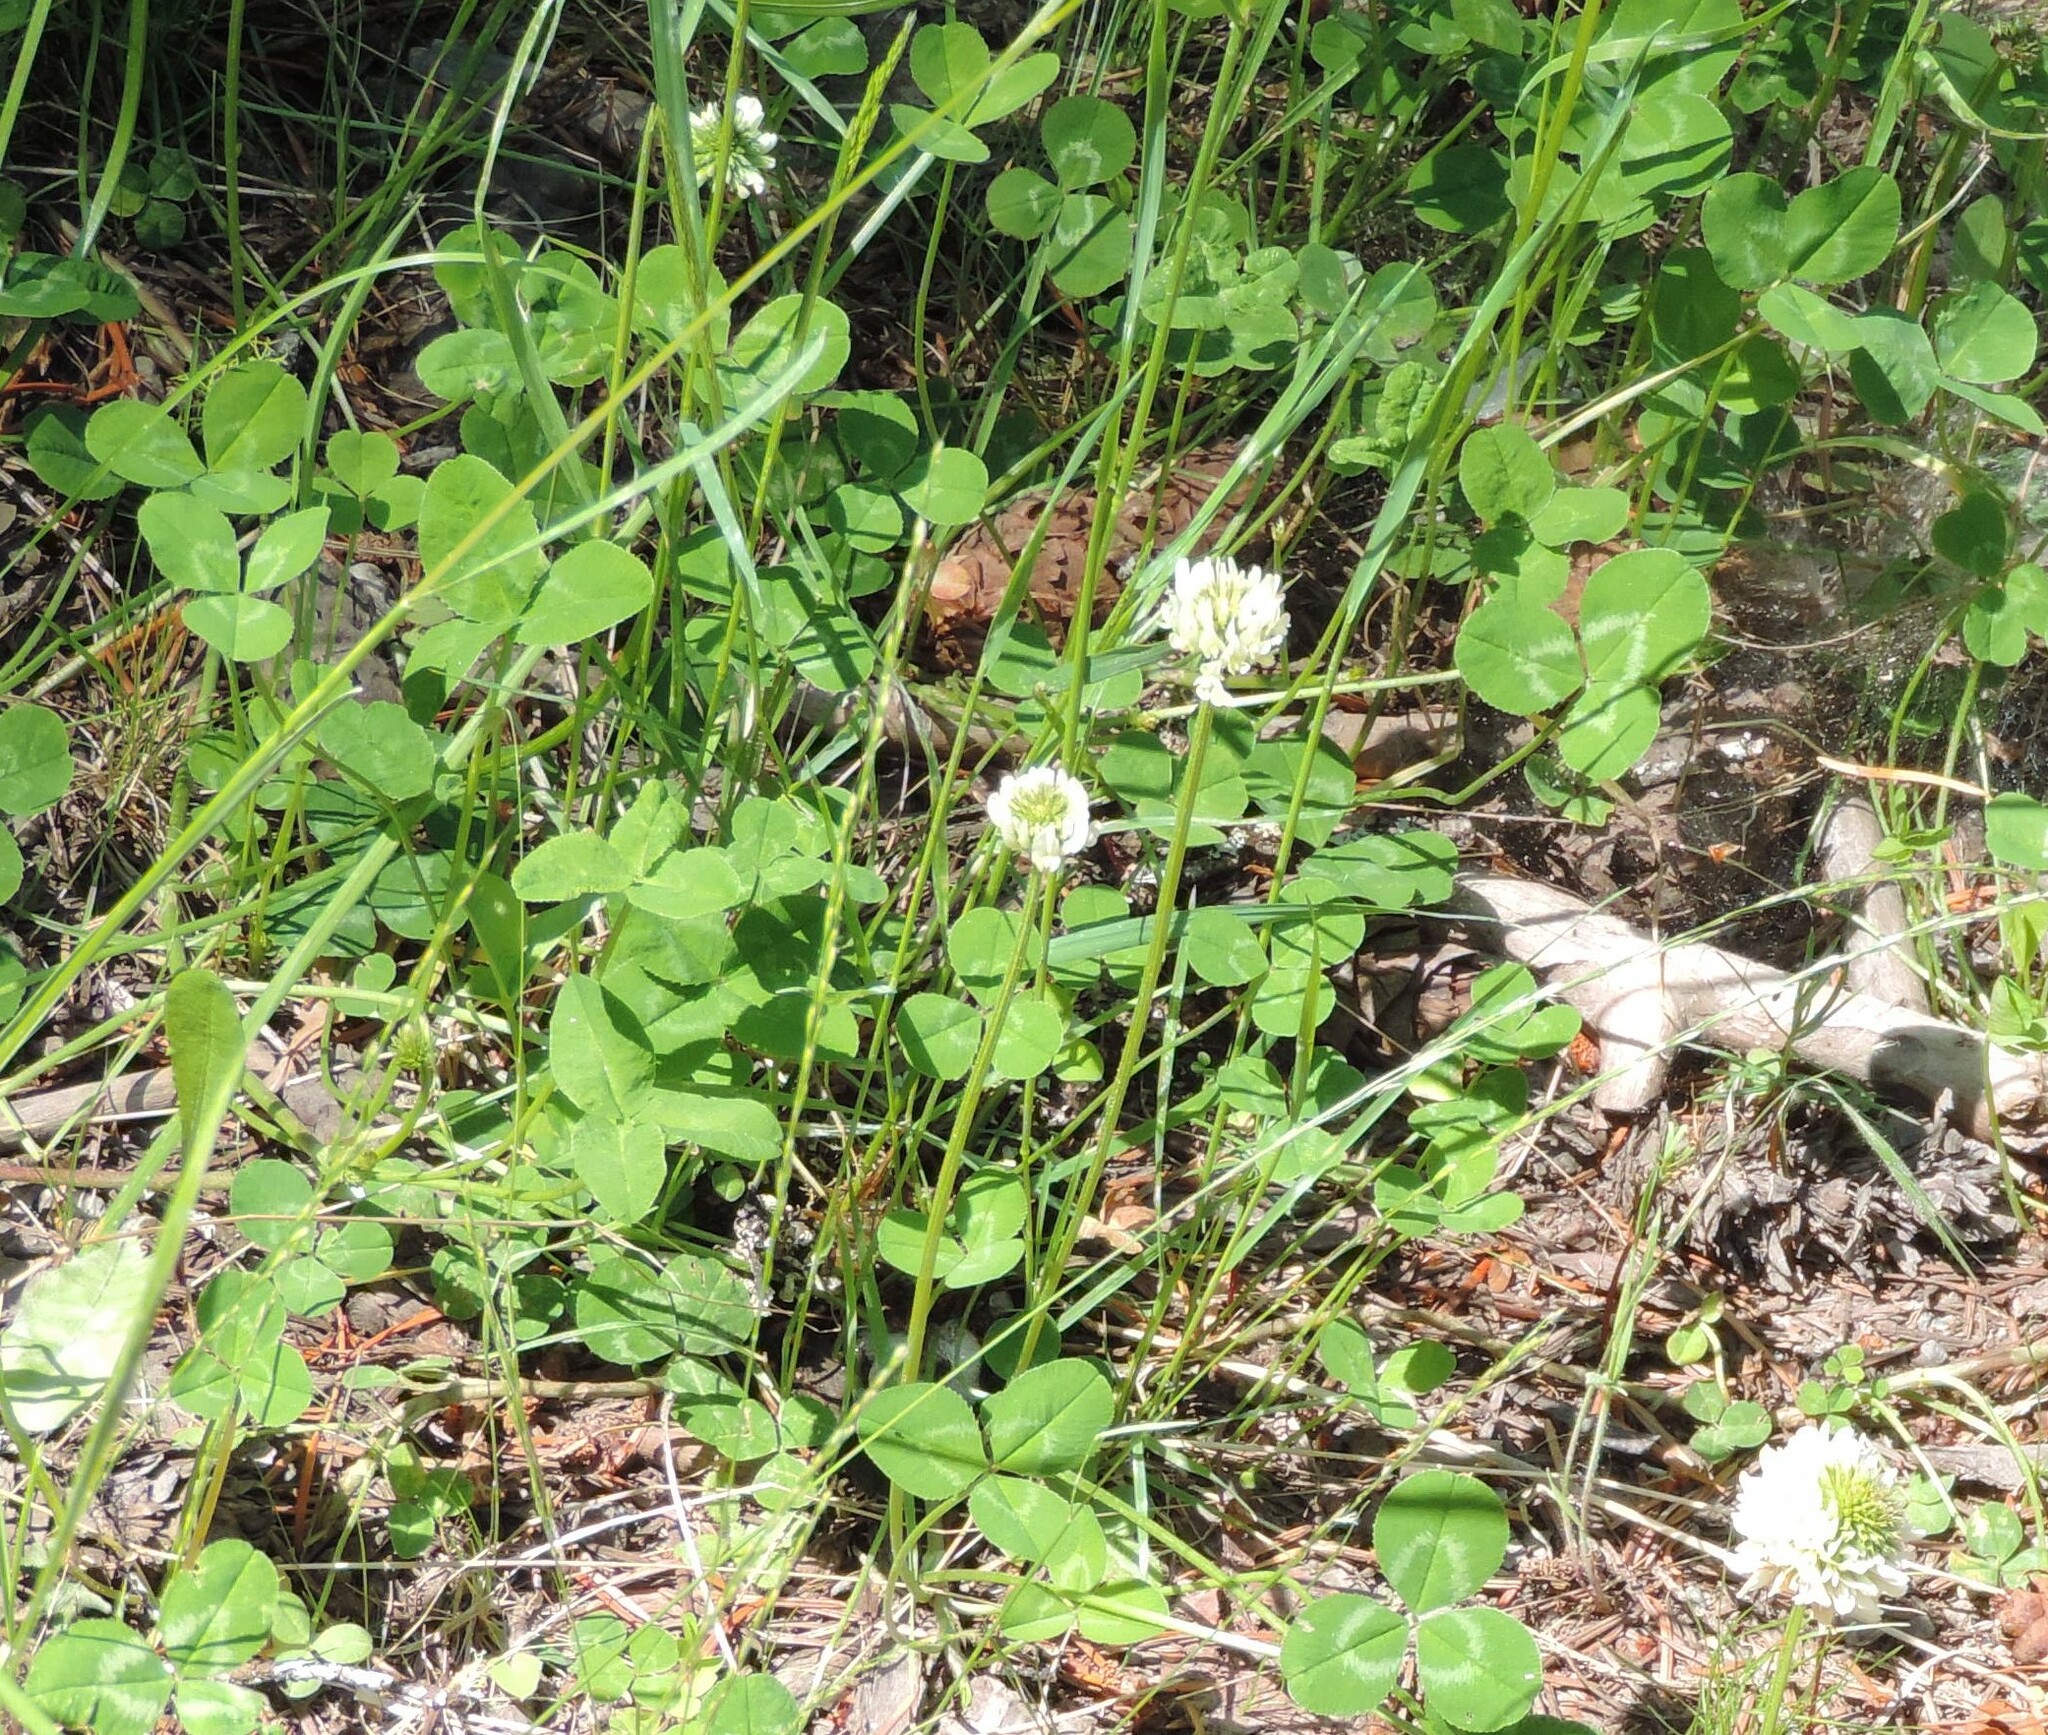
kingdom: Plantae
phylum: Tracheophyta
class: Magnoliopsida
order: Fabales
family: Fabaceae
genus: Trifolium
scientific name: Trifolium repens
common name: White clover
